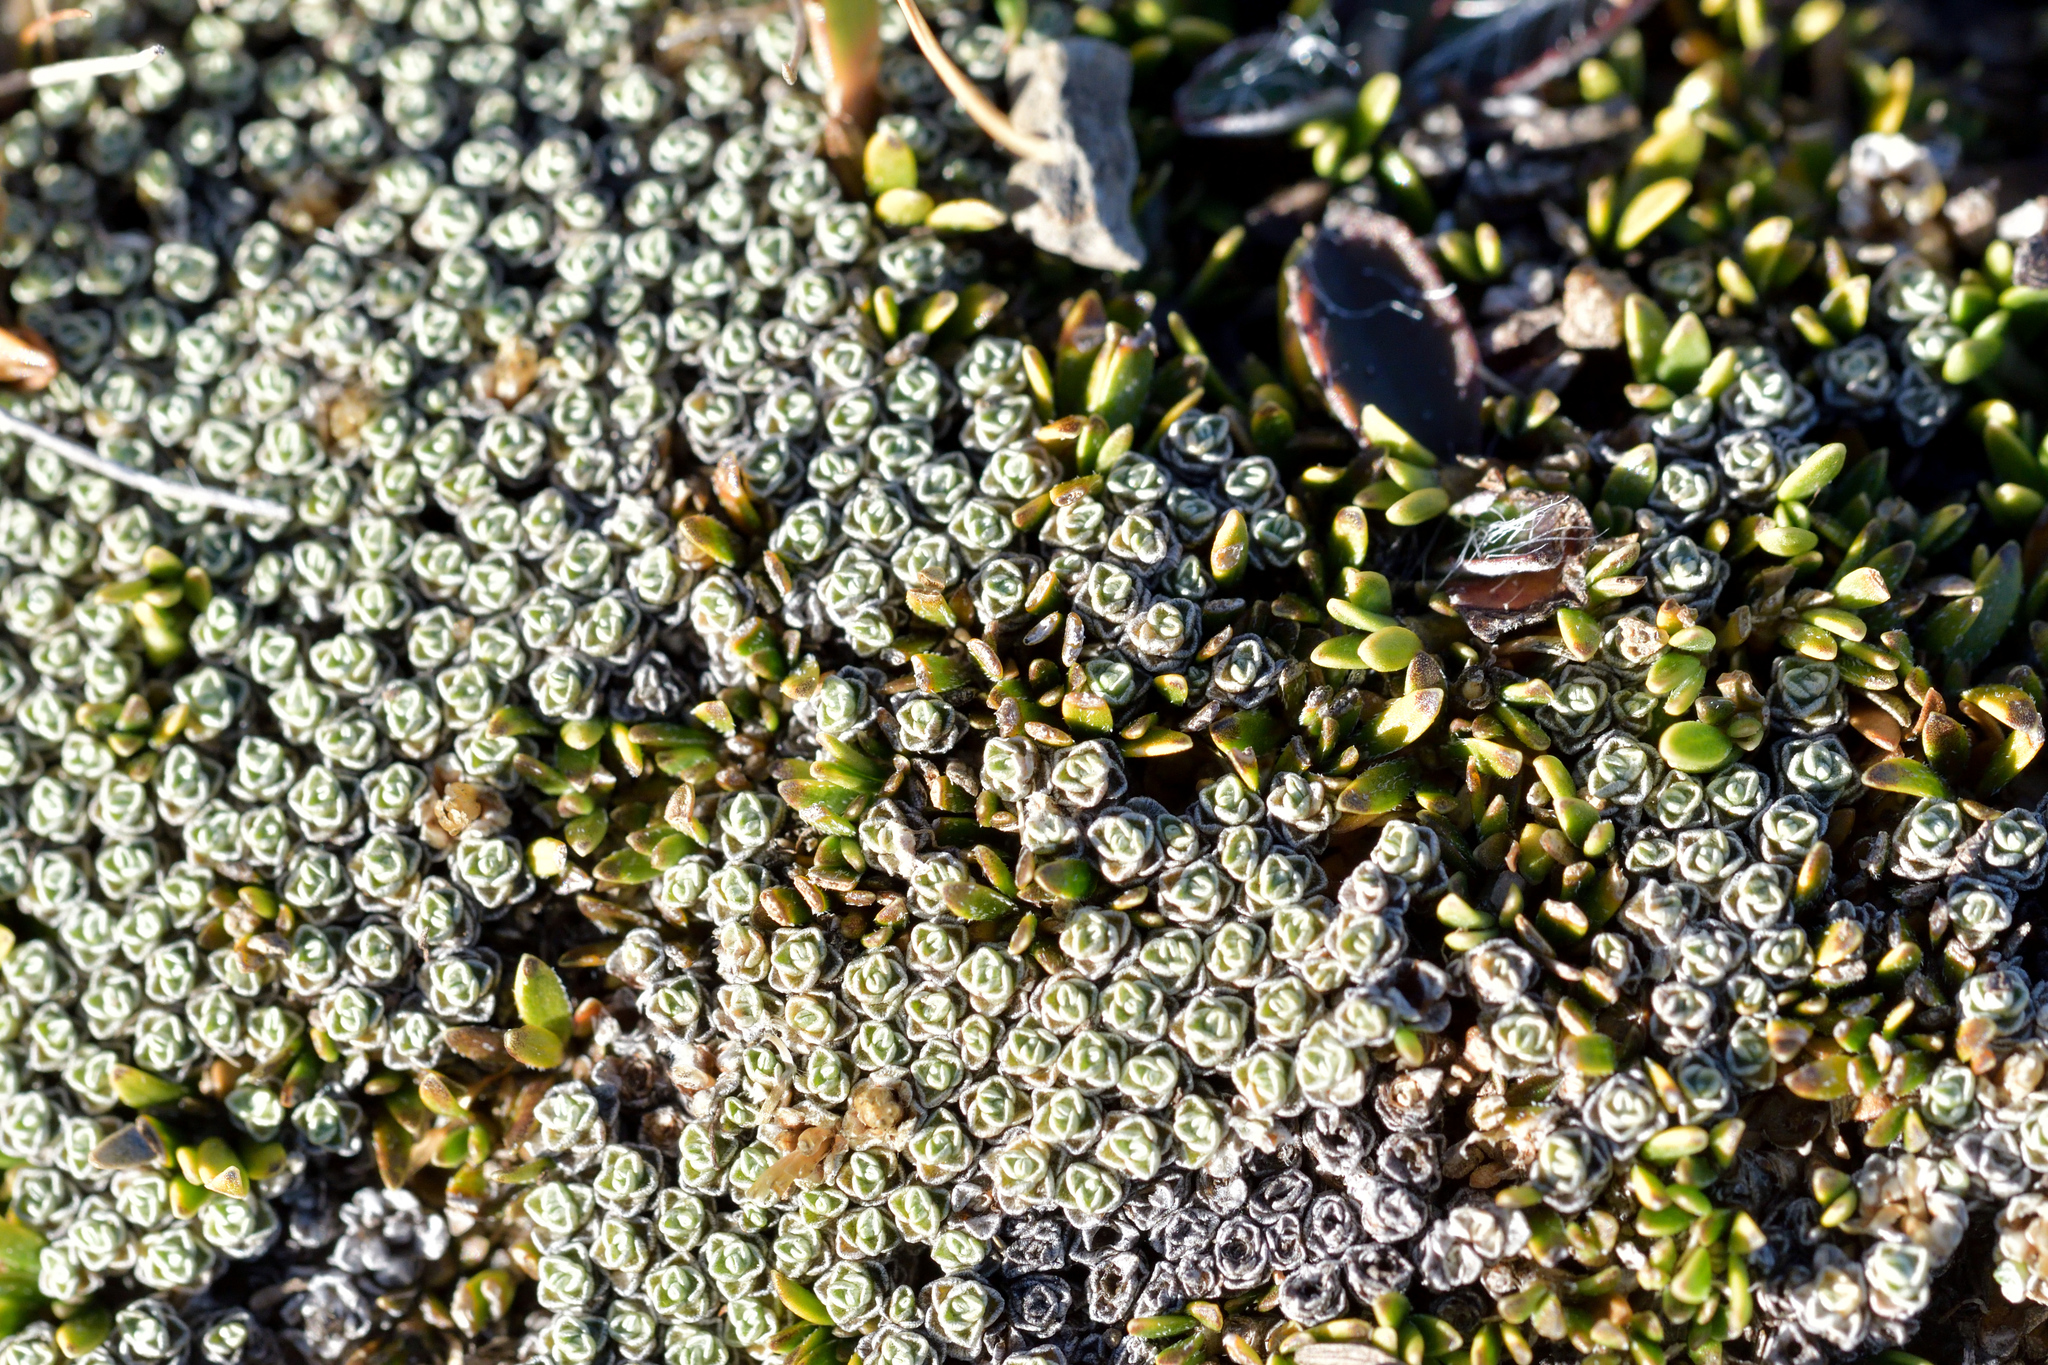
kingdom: Plantae
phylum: Tracheophyta
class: Magnoliopsida
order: Asterales
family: Asteraceae
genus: Raoulia
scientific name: Raoulia australis
